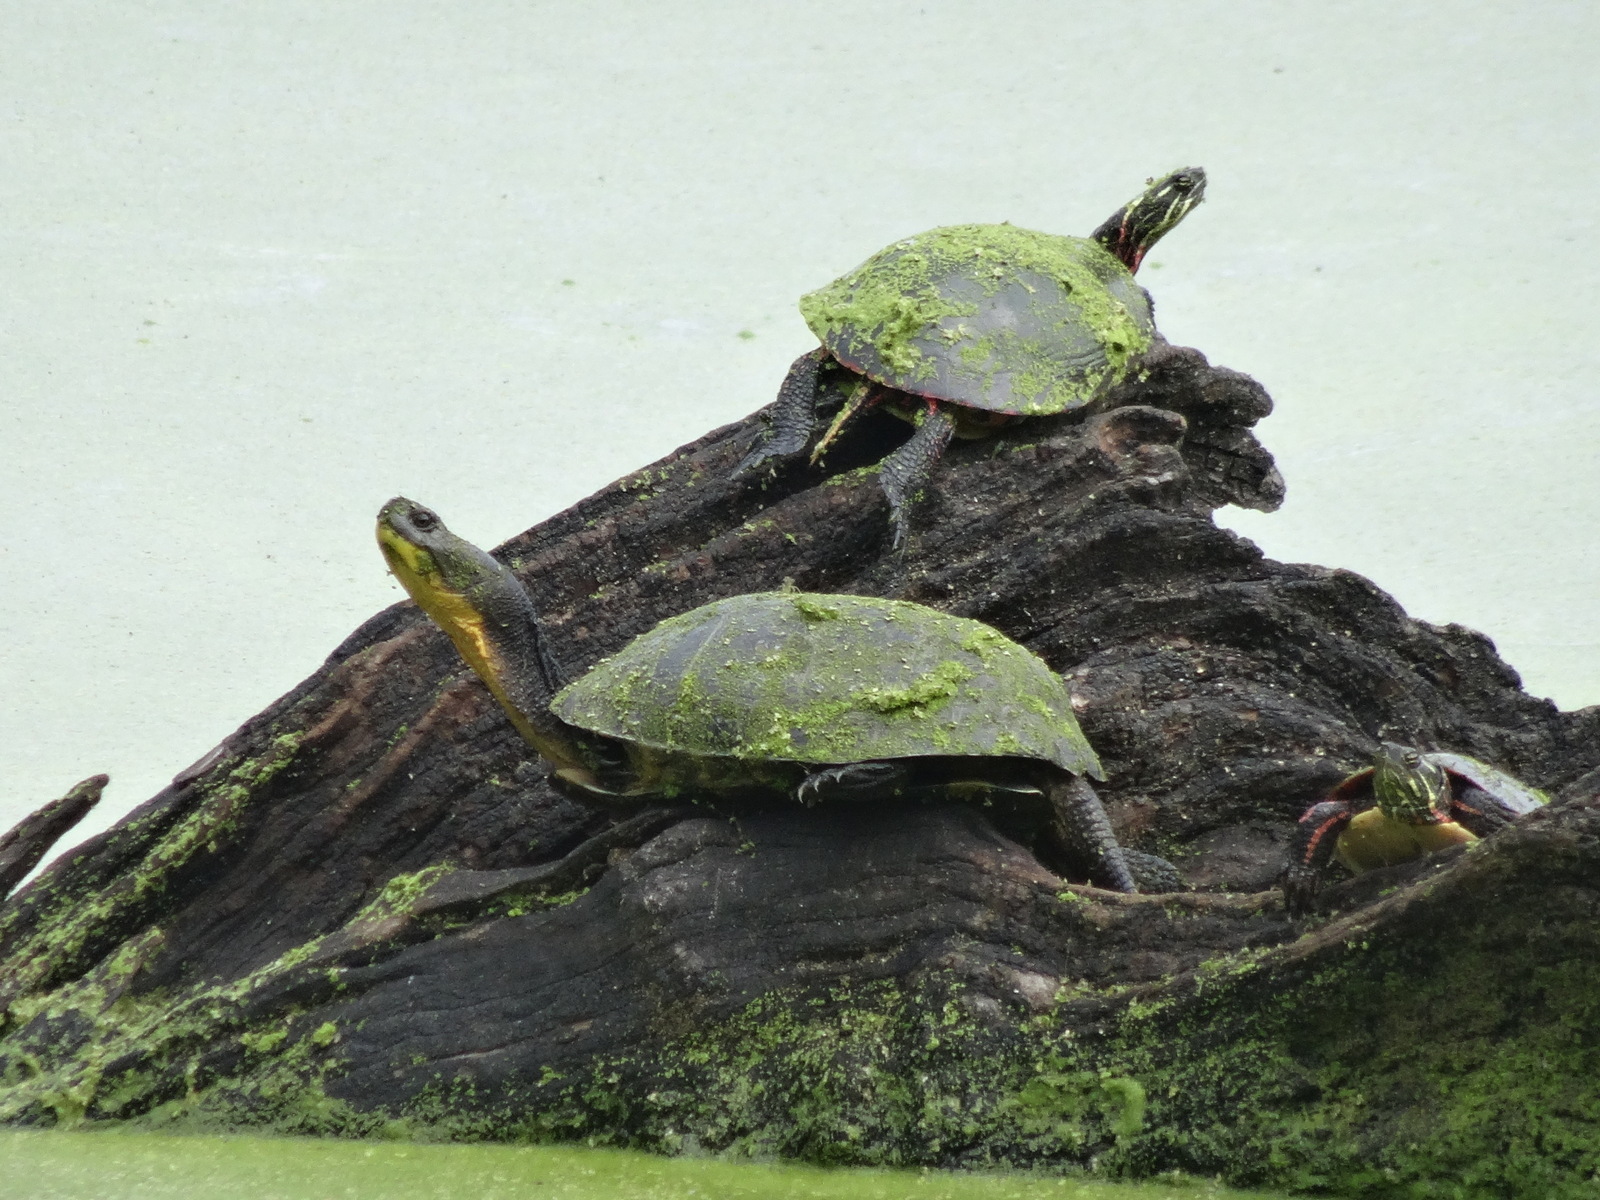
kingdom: Animalia
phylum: Chordata
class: Testudines
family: Emydidae
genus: Emys
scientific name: Emys blandingii
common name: Blanding's turtle
